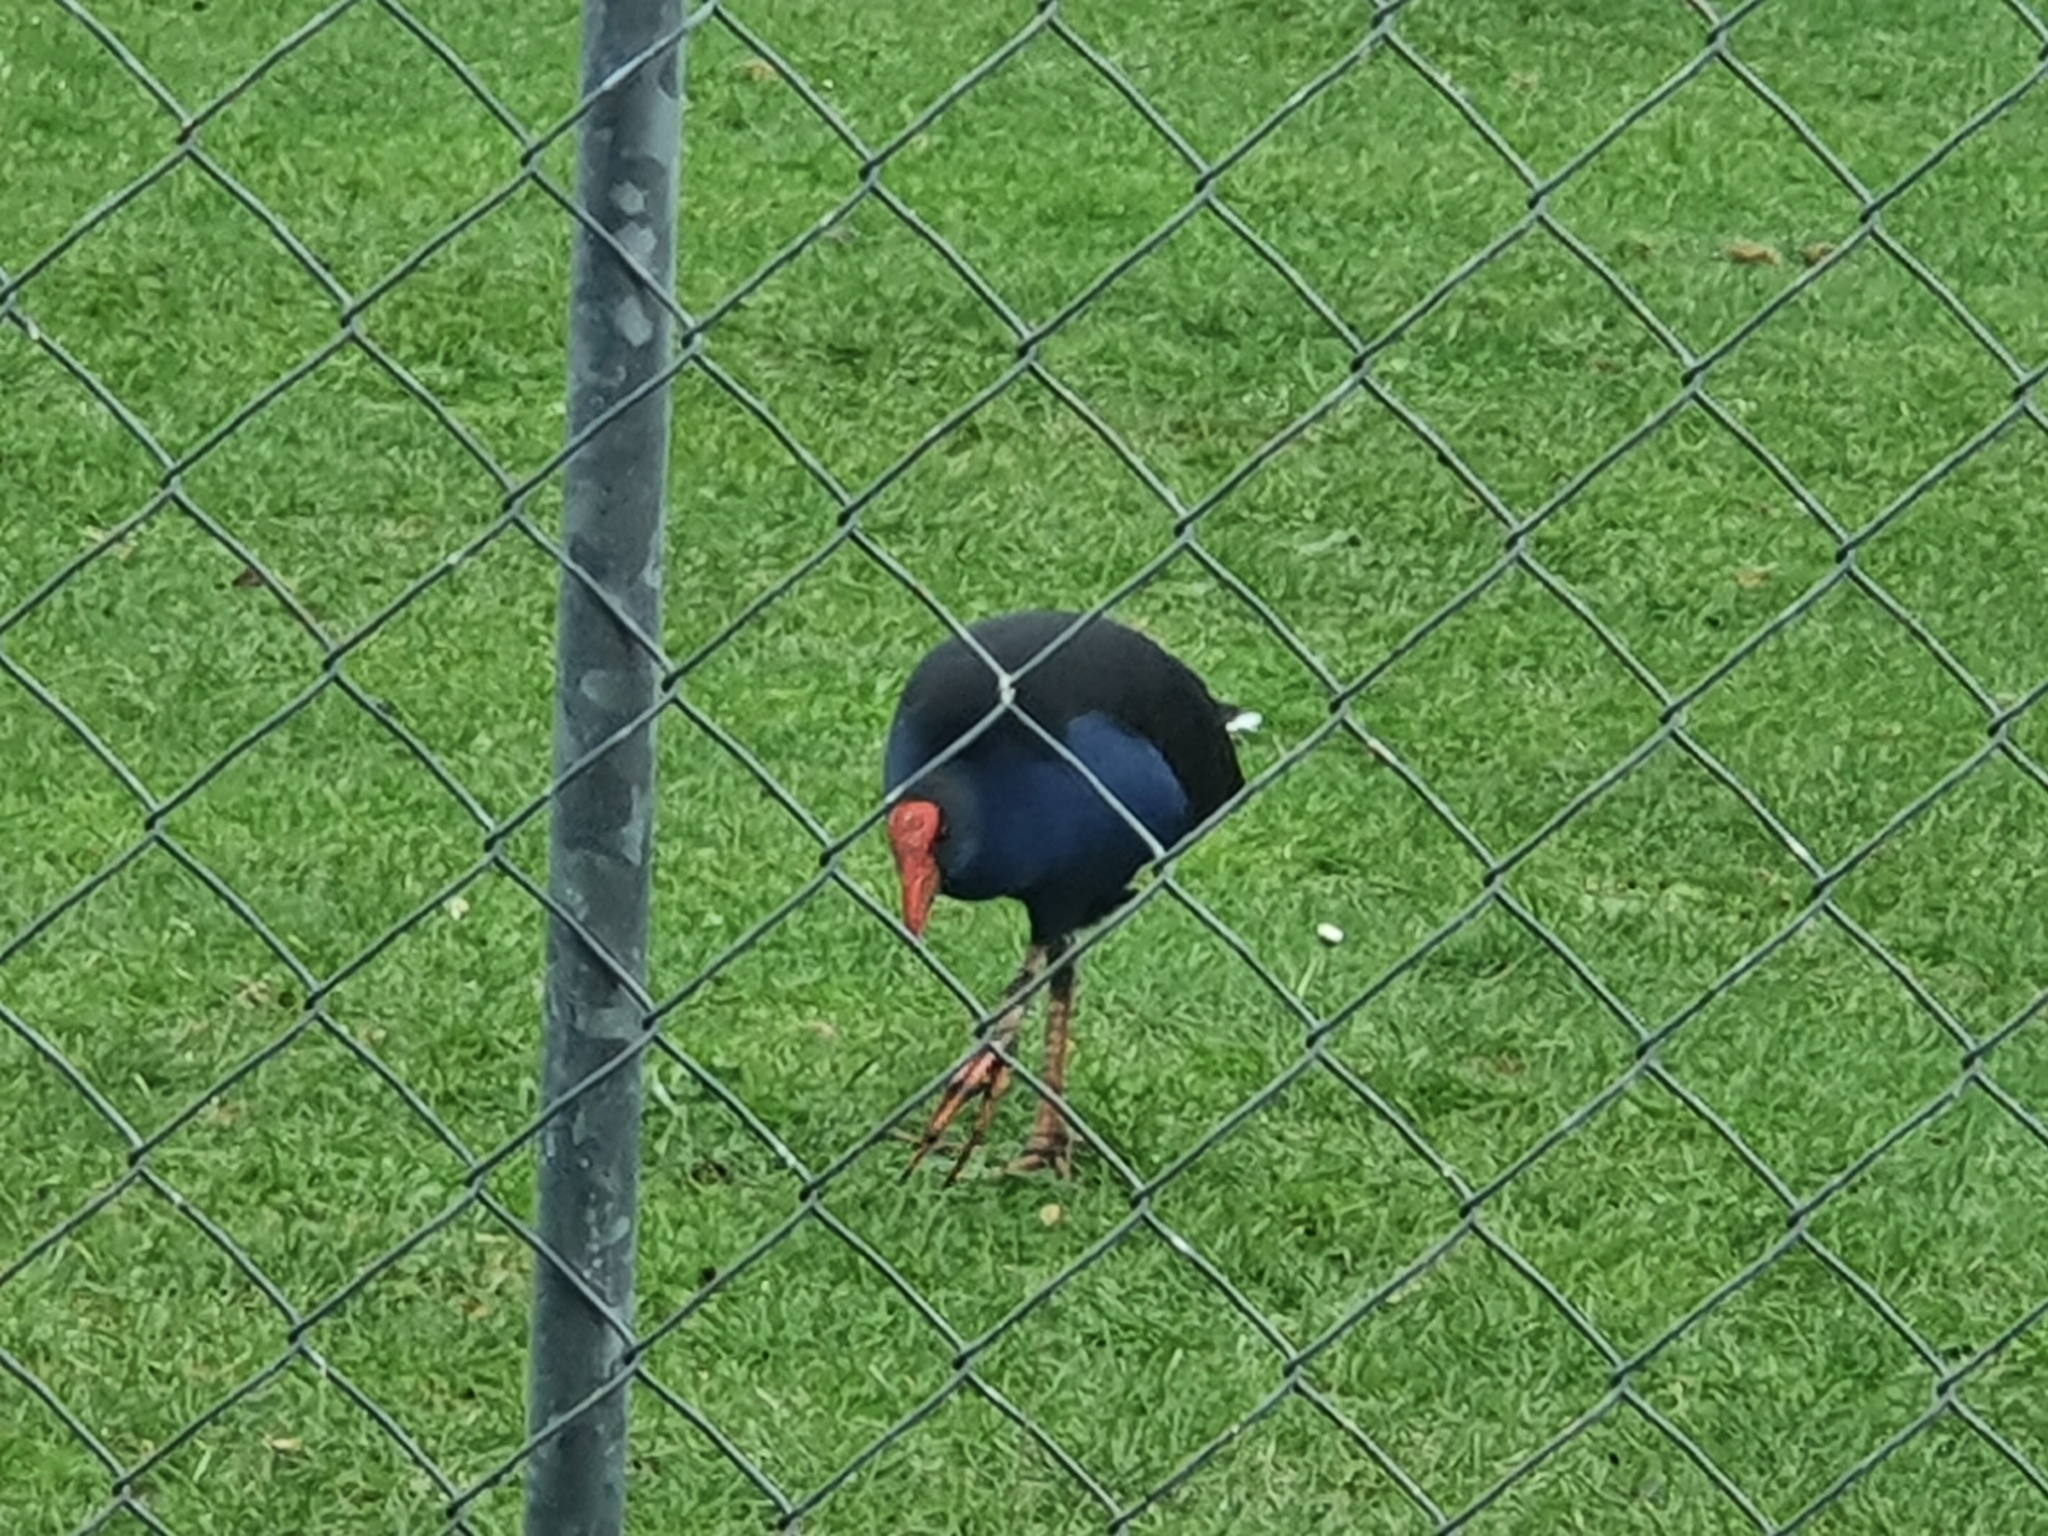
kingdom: Animalia
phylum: Chordata
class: Aves
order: Gruiformes
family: Rallidae
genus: Porphyrio
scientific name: Porphyrio melanotus
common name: Australasian swamphen
